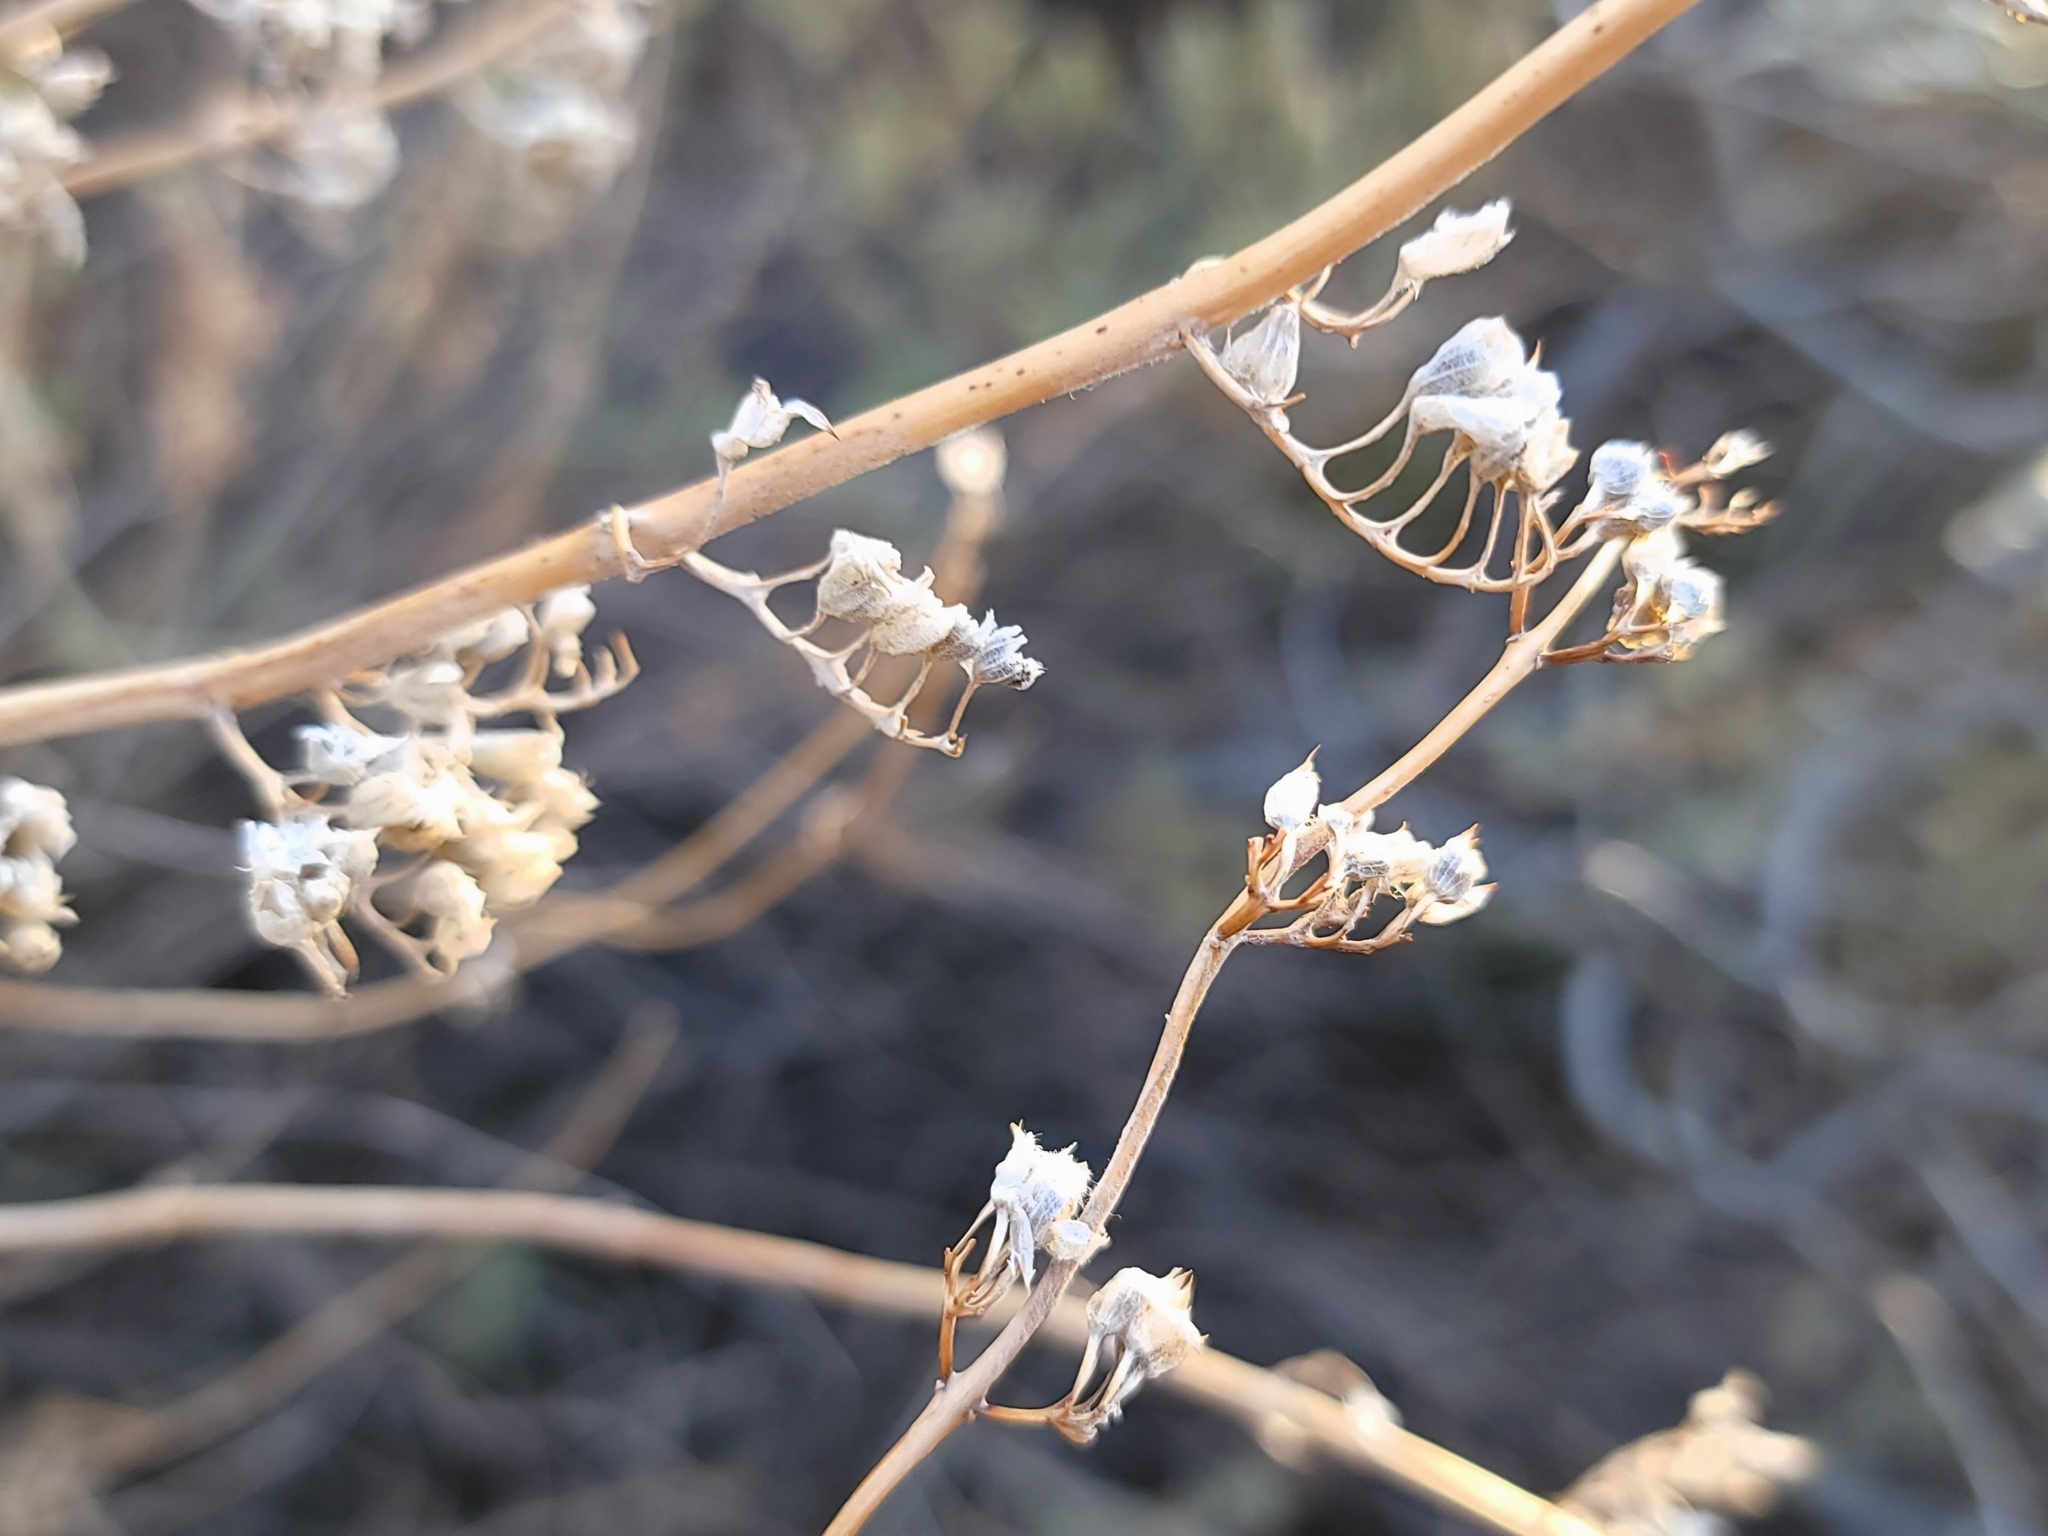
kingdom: Plantae
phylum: Tracheophyta
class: Magnoliopsida
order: Lamiales
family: Lamiaceae
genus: Trichostema
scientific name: Trichostema lanatum
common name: Woolly bluecurls
